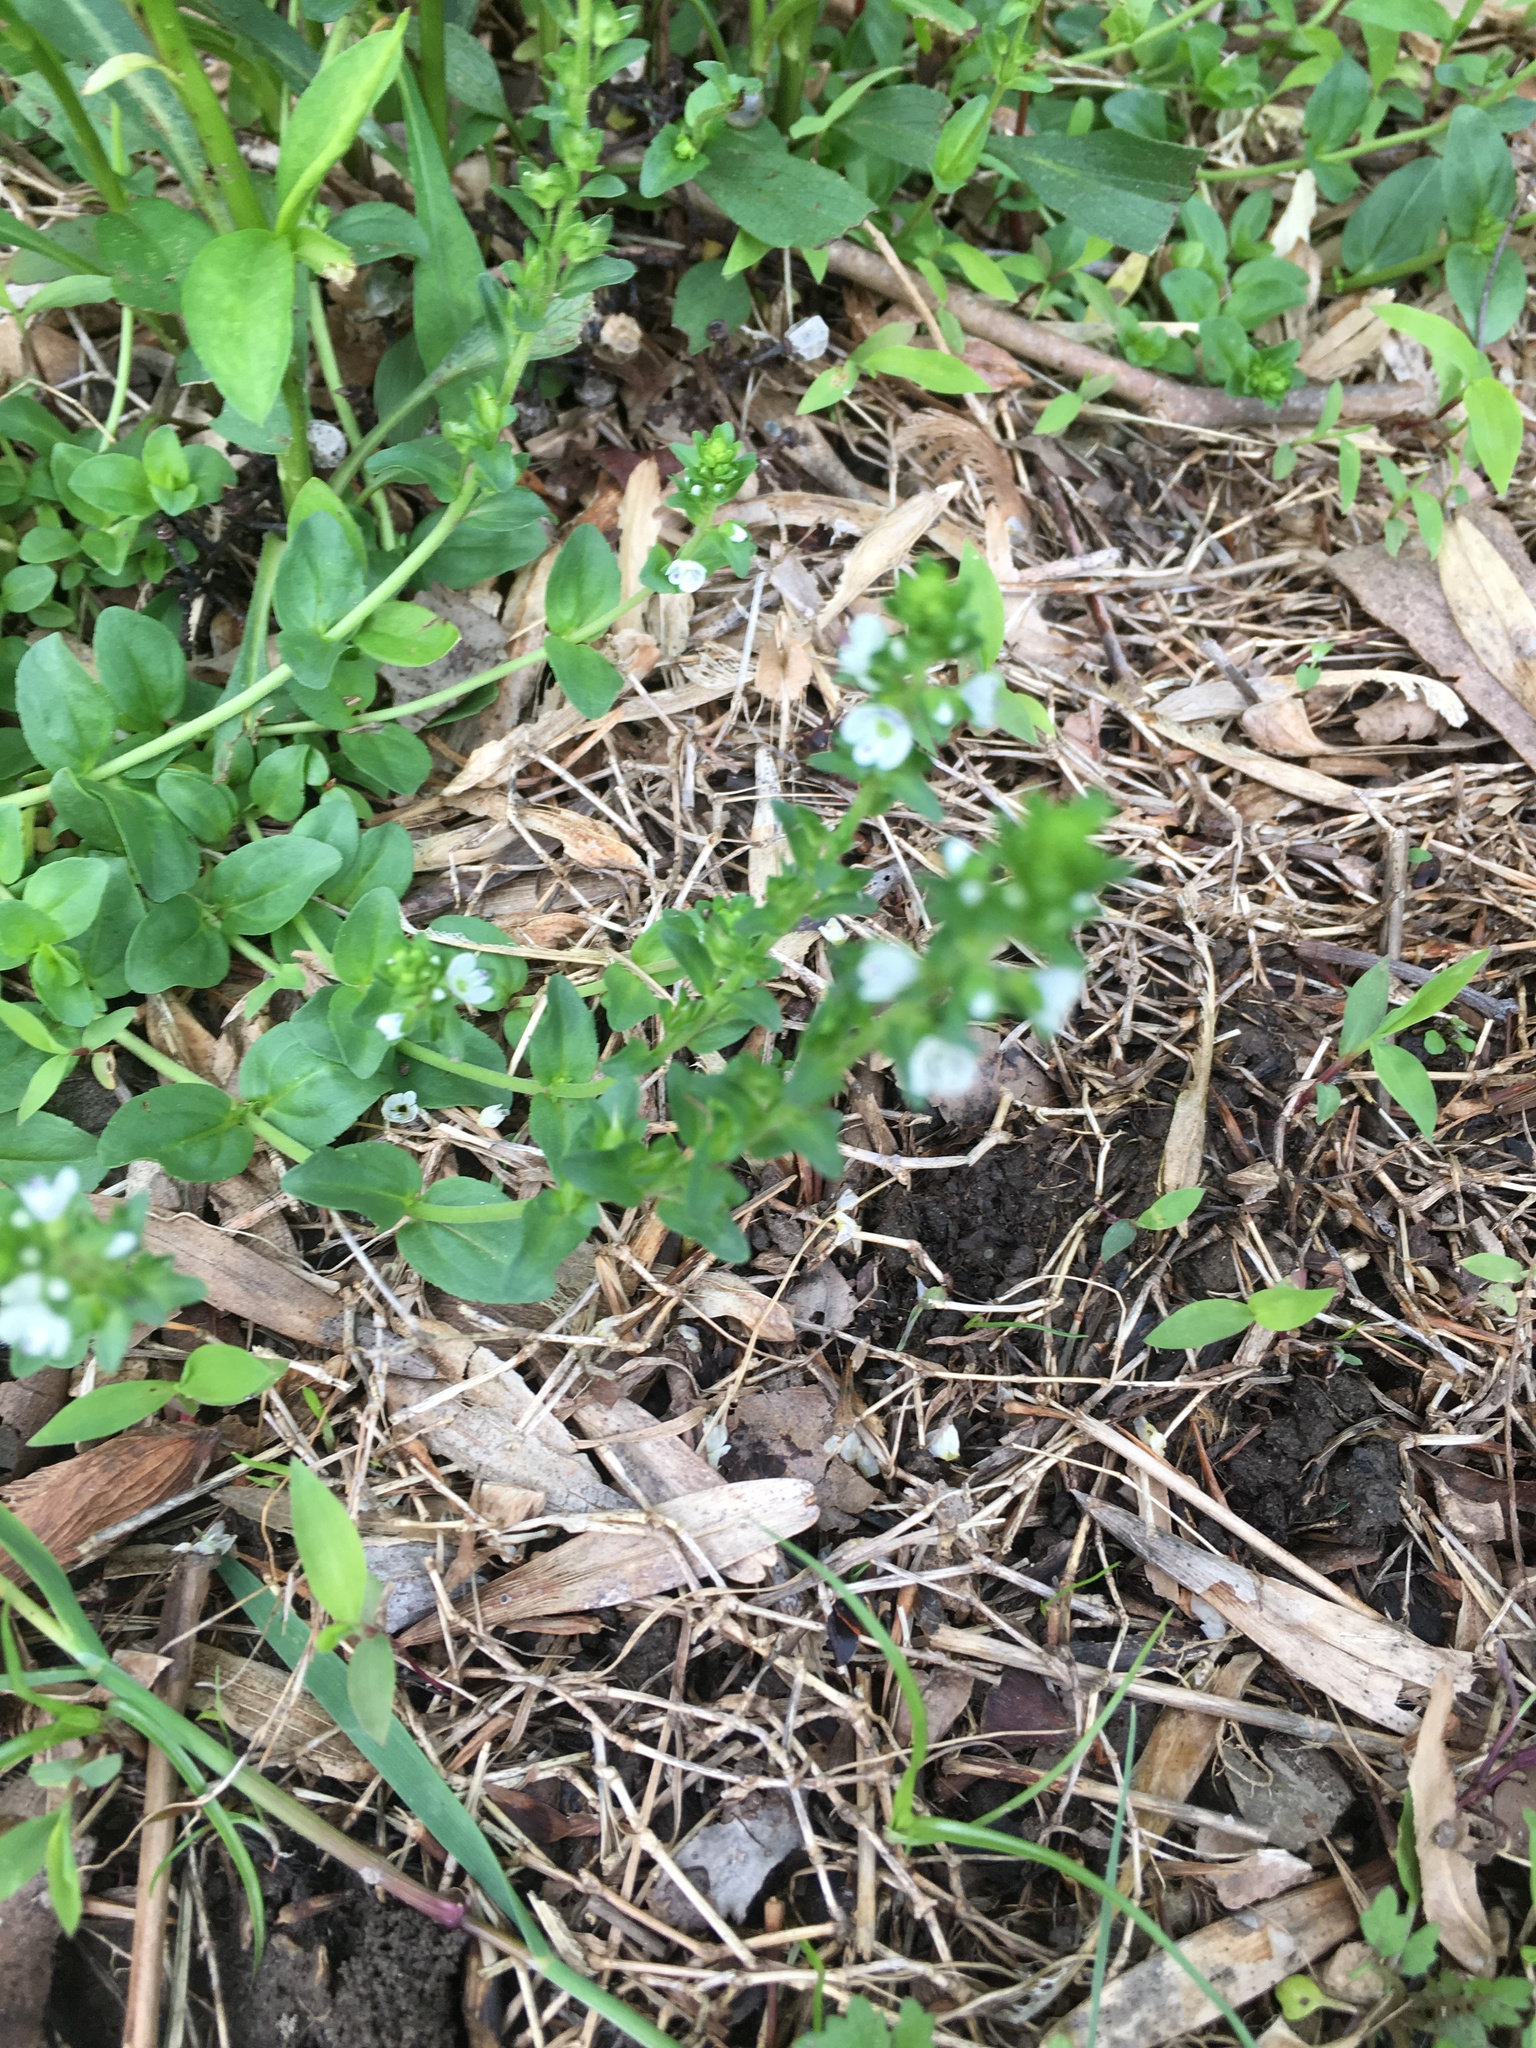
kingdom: Plantae
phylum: Tracheophyta
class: Magnoliopsida
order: Lamiales
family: Plantaginaceae
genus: Veronica
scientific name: Veronica serpyllifolia
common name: Thyme-leaved speedwell
